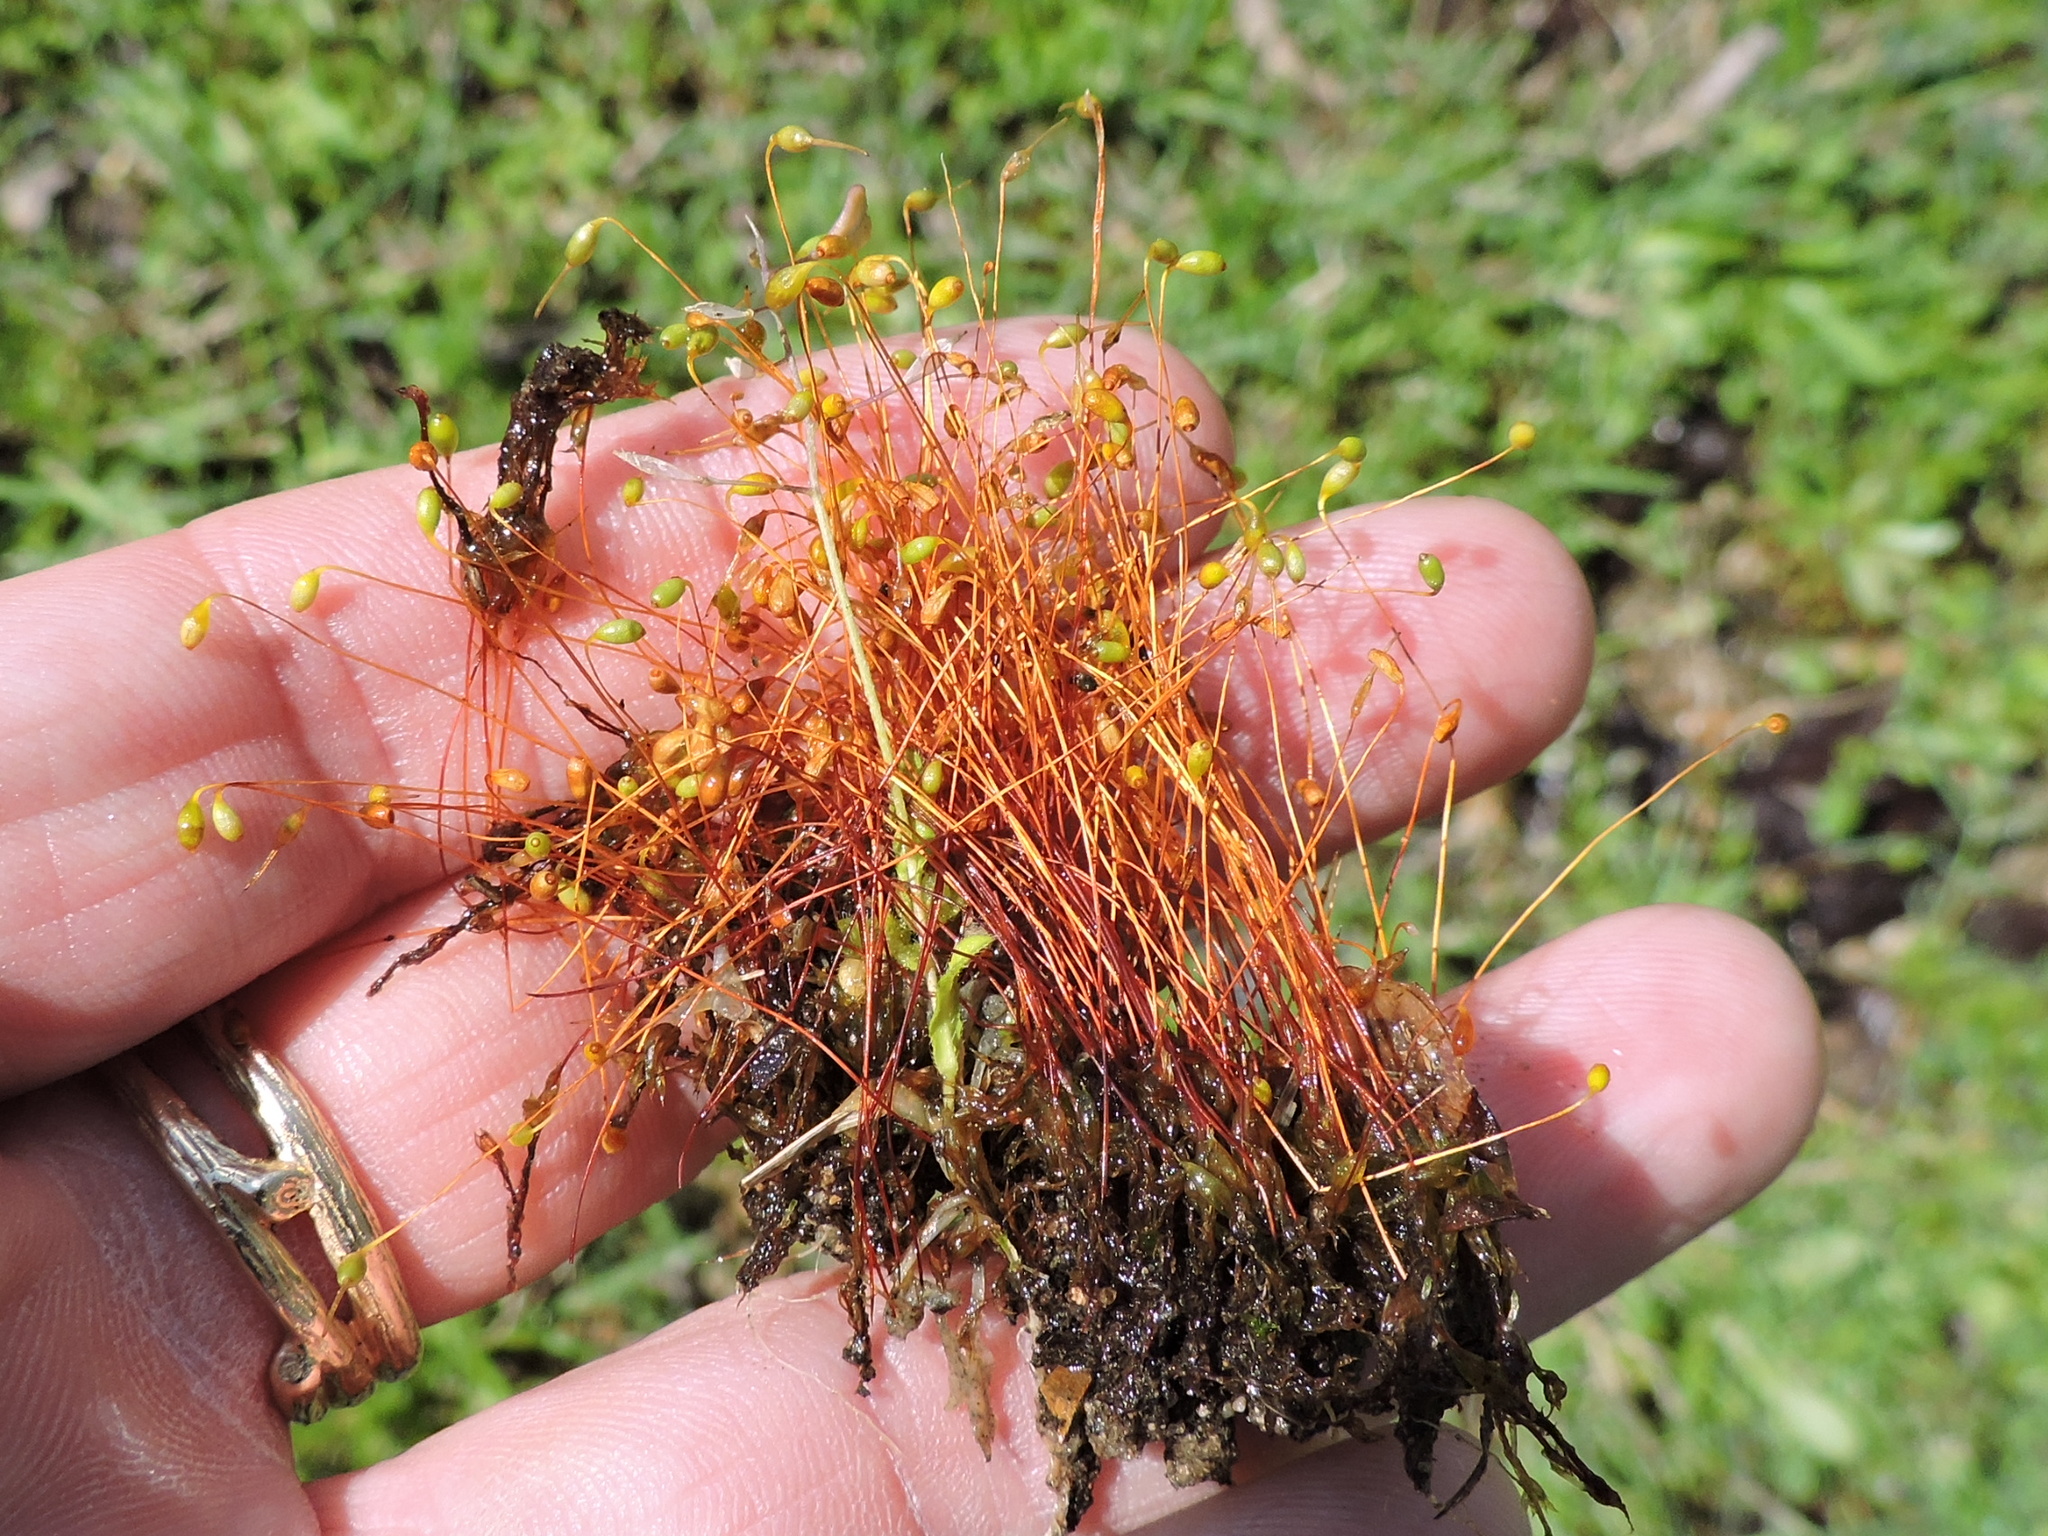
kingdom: Plantae
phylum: Bryophyta
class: Bryopsida
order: Dicranales
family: Ditrichaceae
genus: Ceratodon
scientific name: Ceratodon purpureus
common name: Redshank
